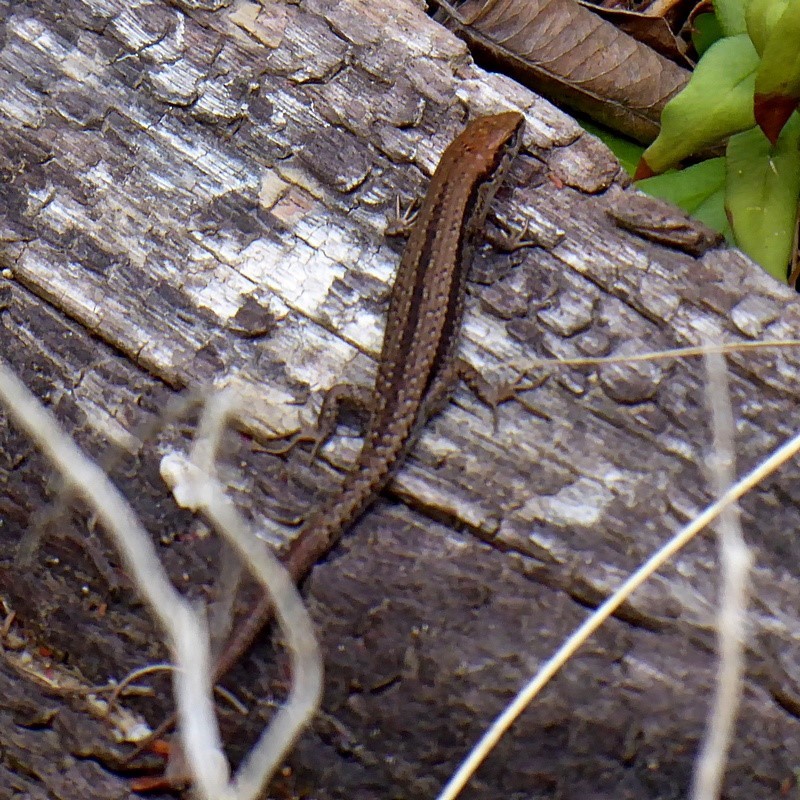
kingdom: Animalia
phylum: Chordata
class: Squamata
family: Scincidae
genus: Lampropholis
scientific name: Lampropholis guichenoti
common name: Garden skink
